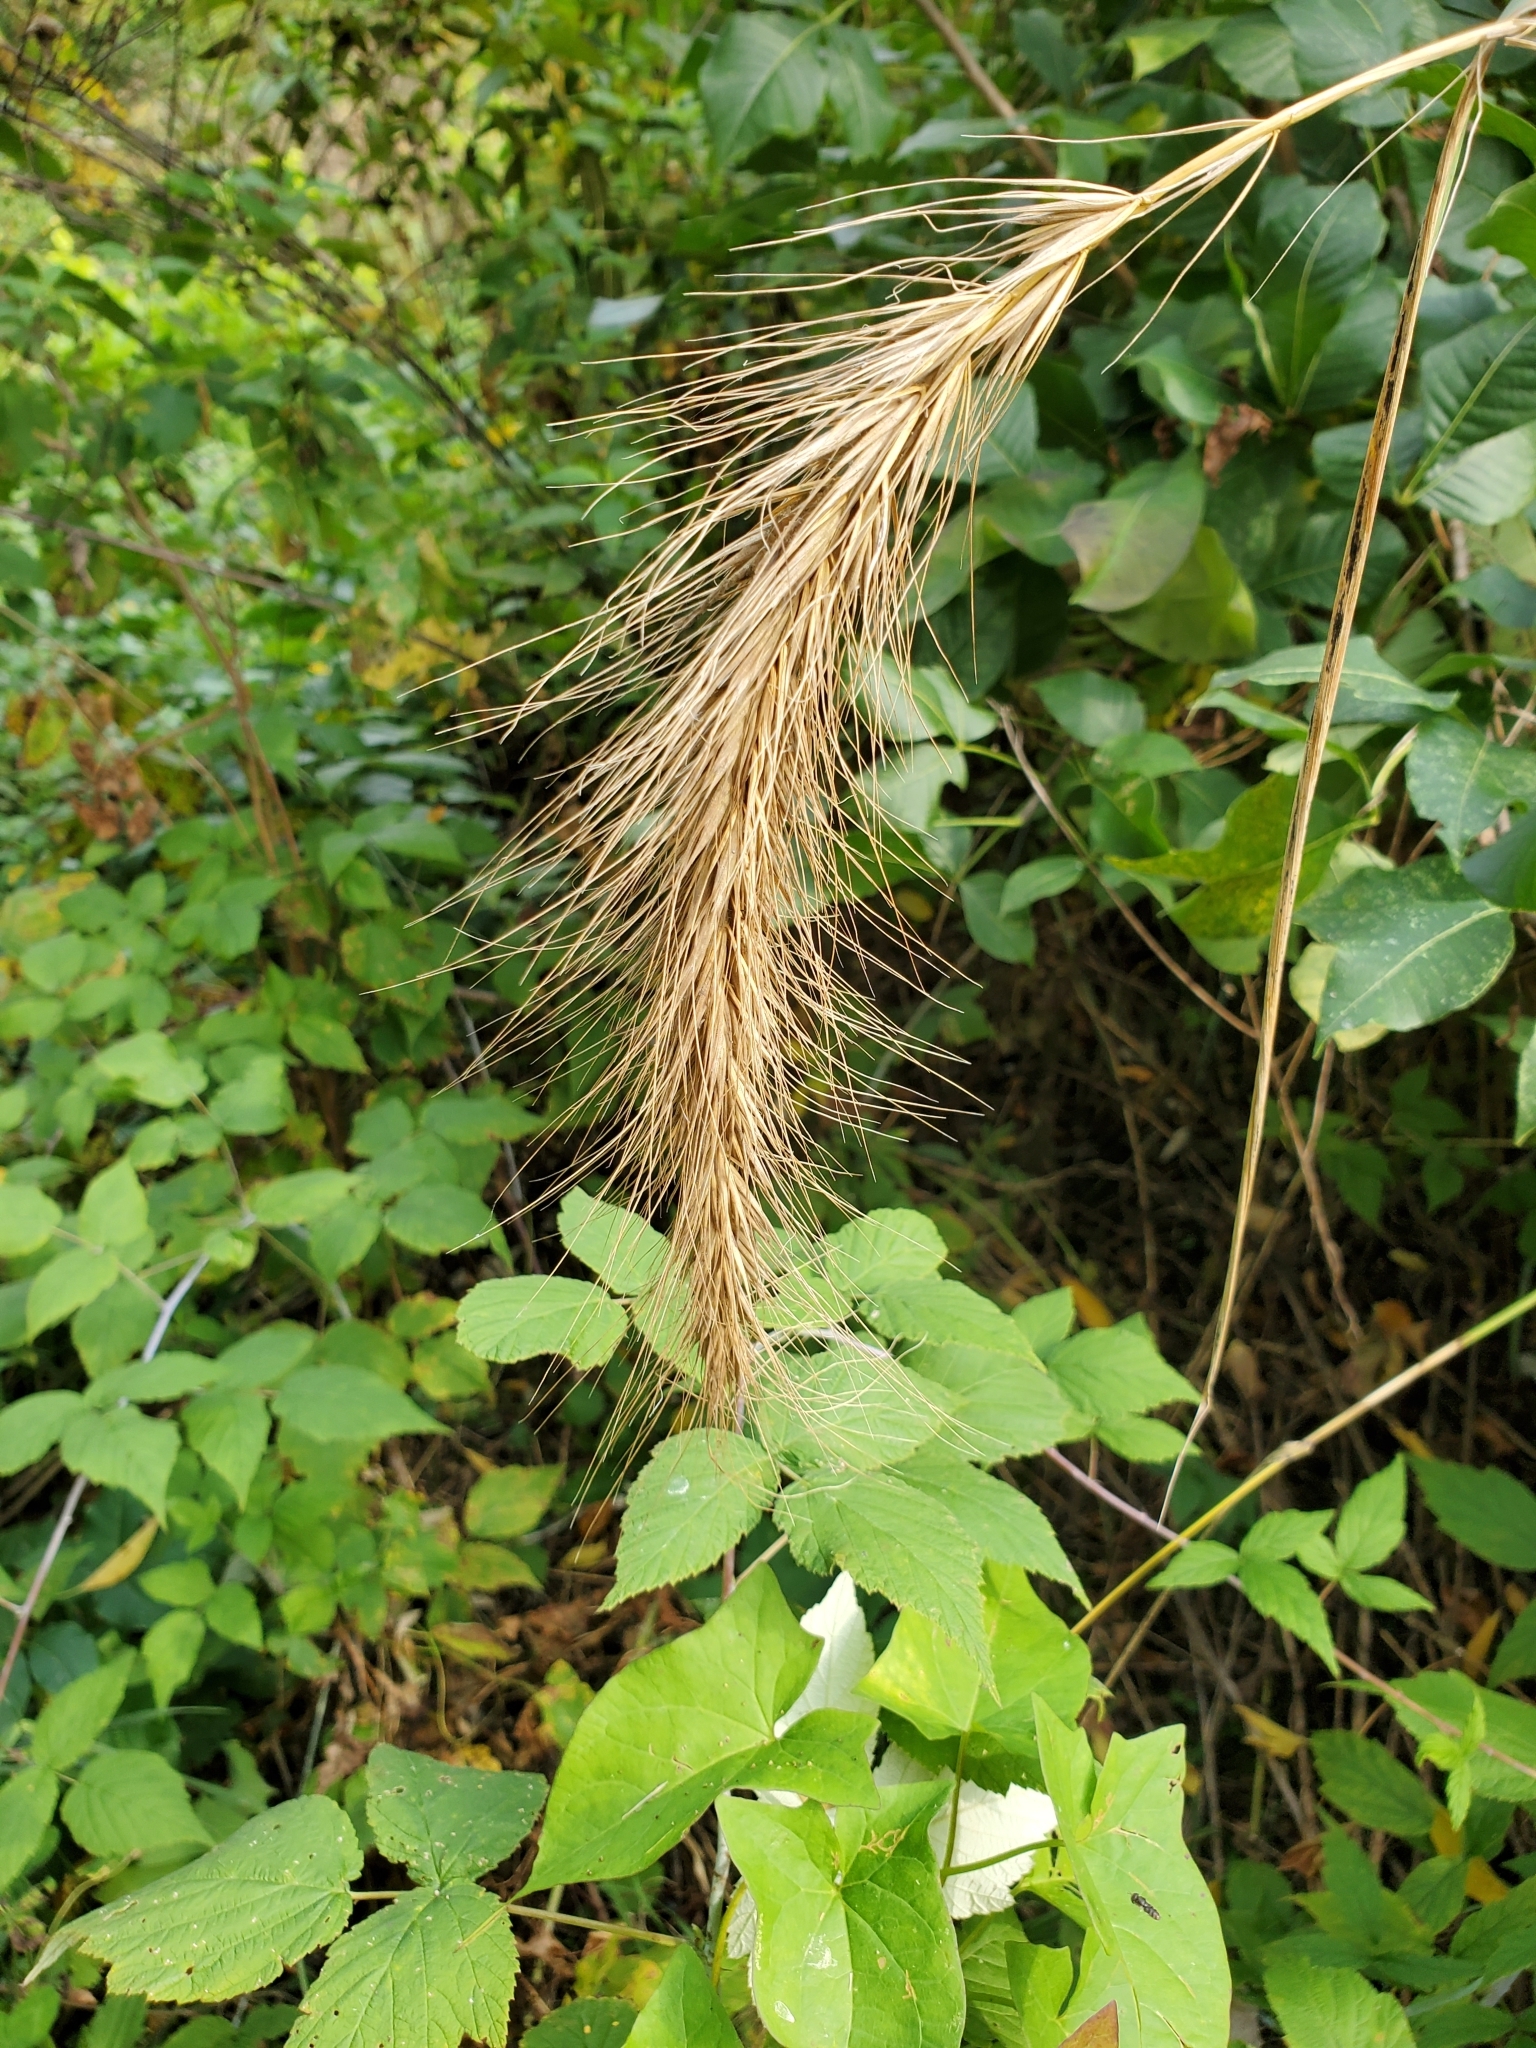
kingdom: Plantae
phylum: Tracheophyta
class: Liliopsida
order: Poales
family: Poaceae
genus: Elymus
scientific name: Elymus canadensis
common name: Canada wild rye
